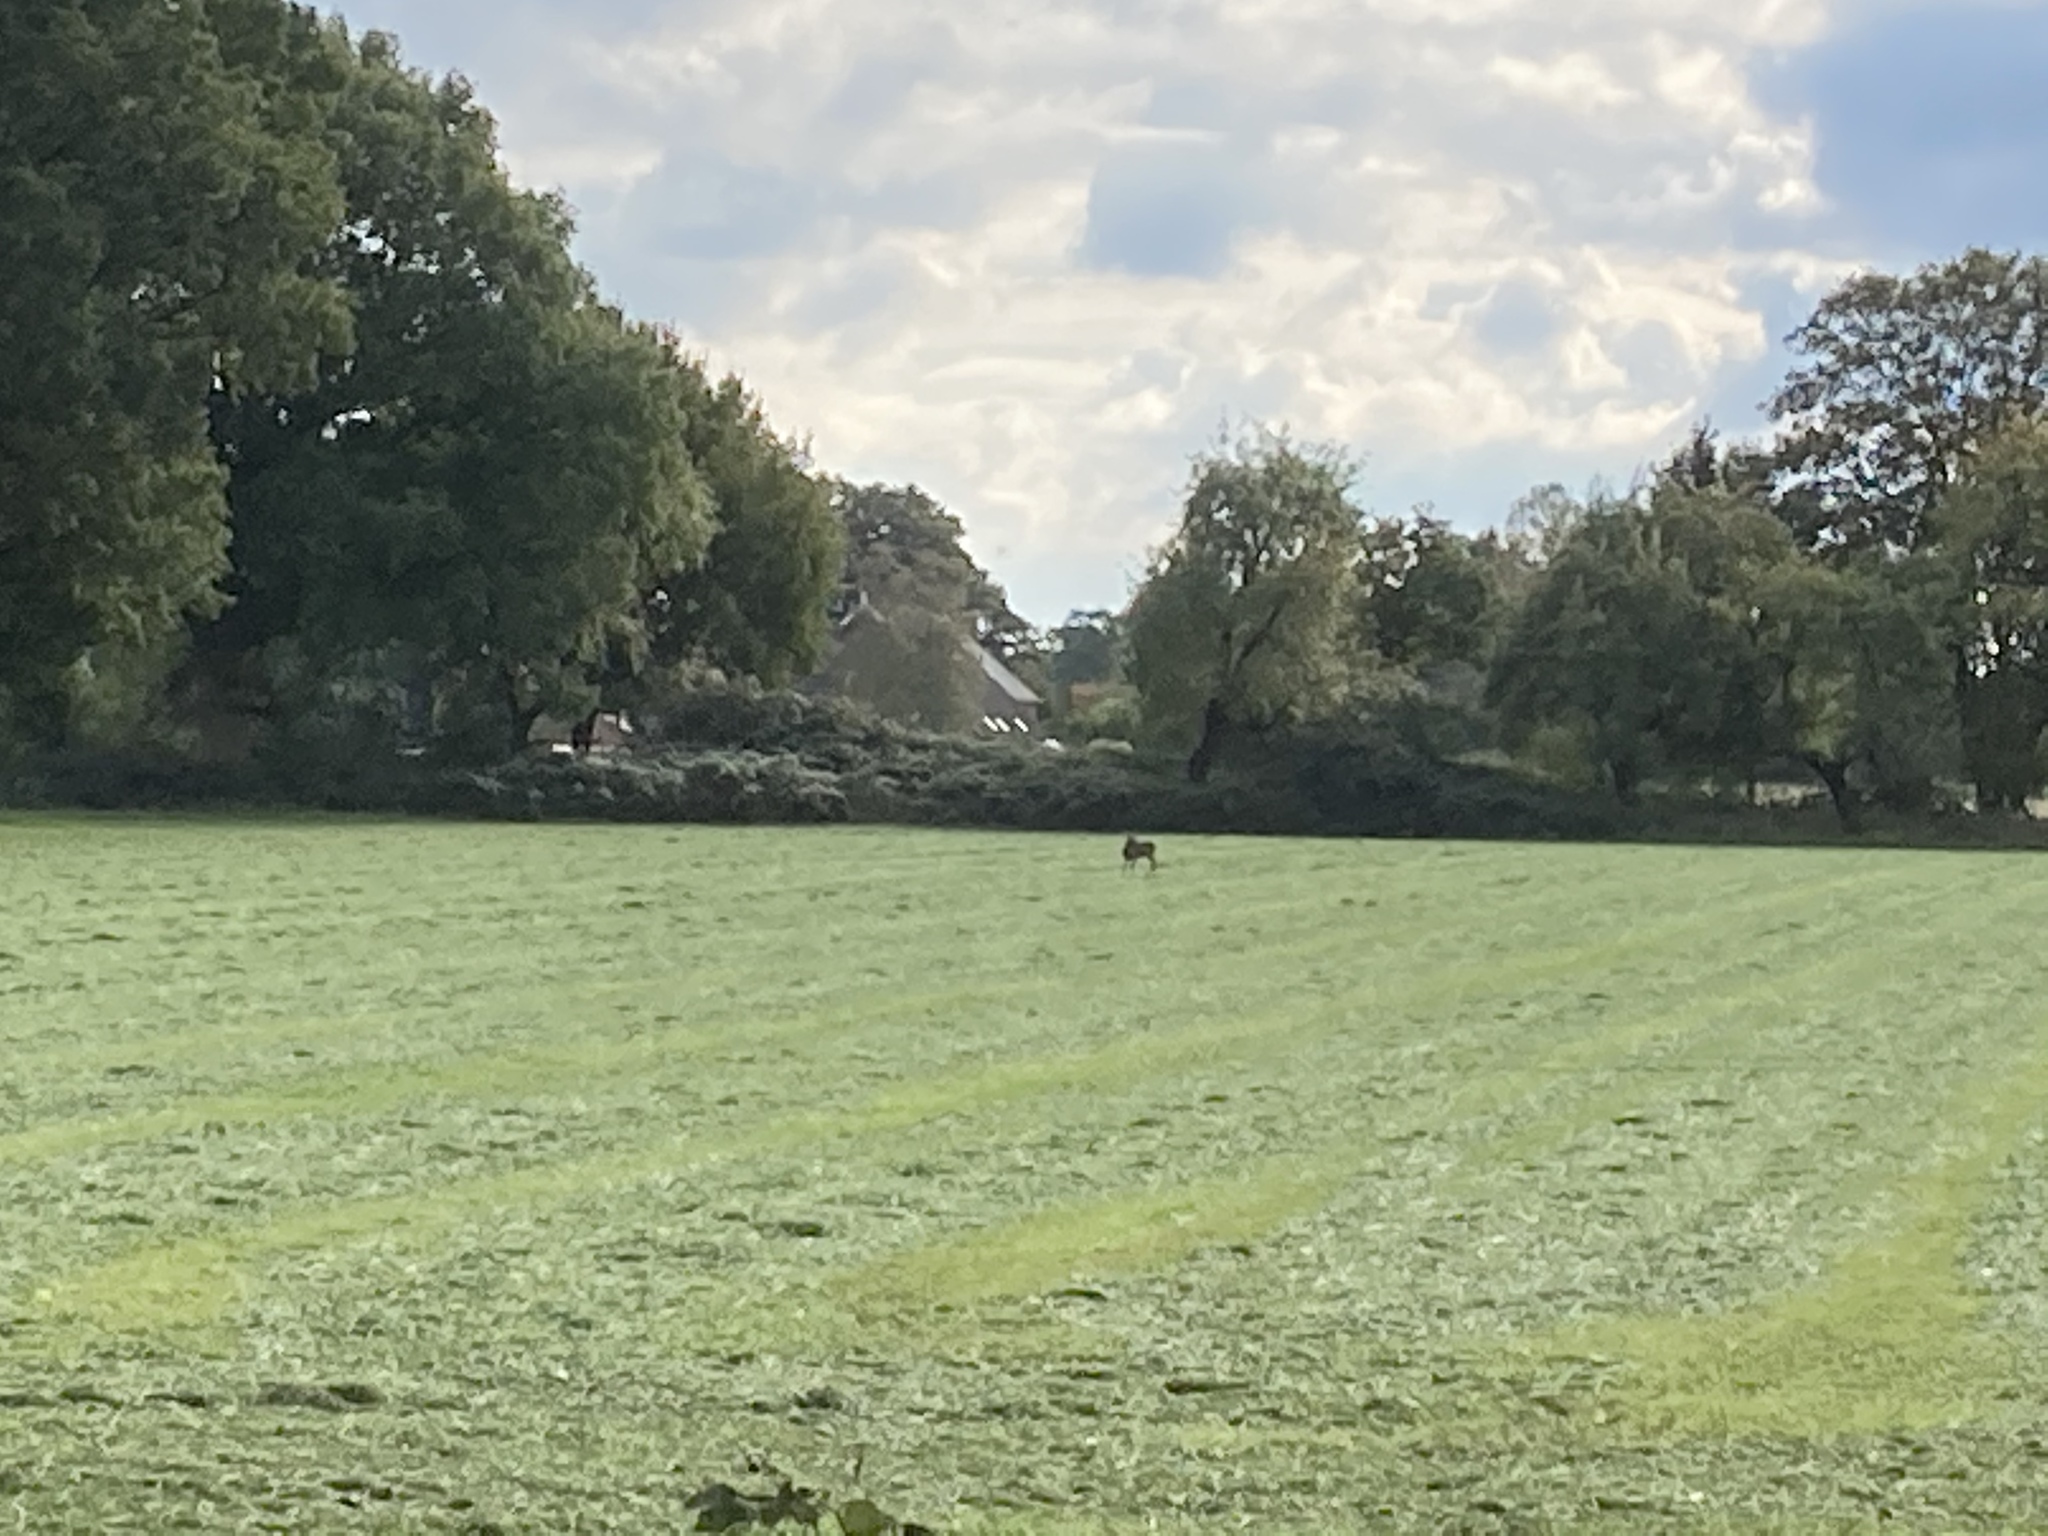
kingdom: Animalia
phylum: Chordata
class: Mammalia
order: Artiodactyla
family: Cervidae
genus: Capreolus
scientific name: Capreolus capreolus
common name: Western roe deer
